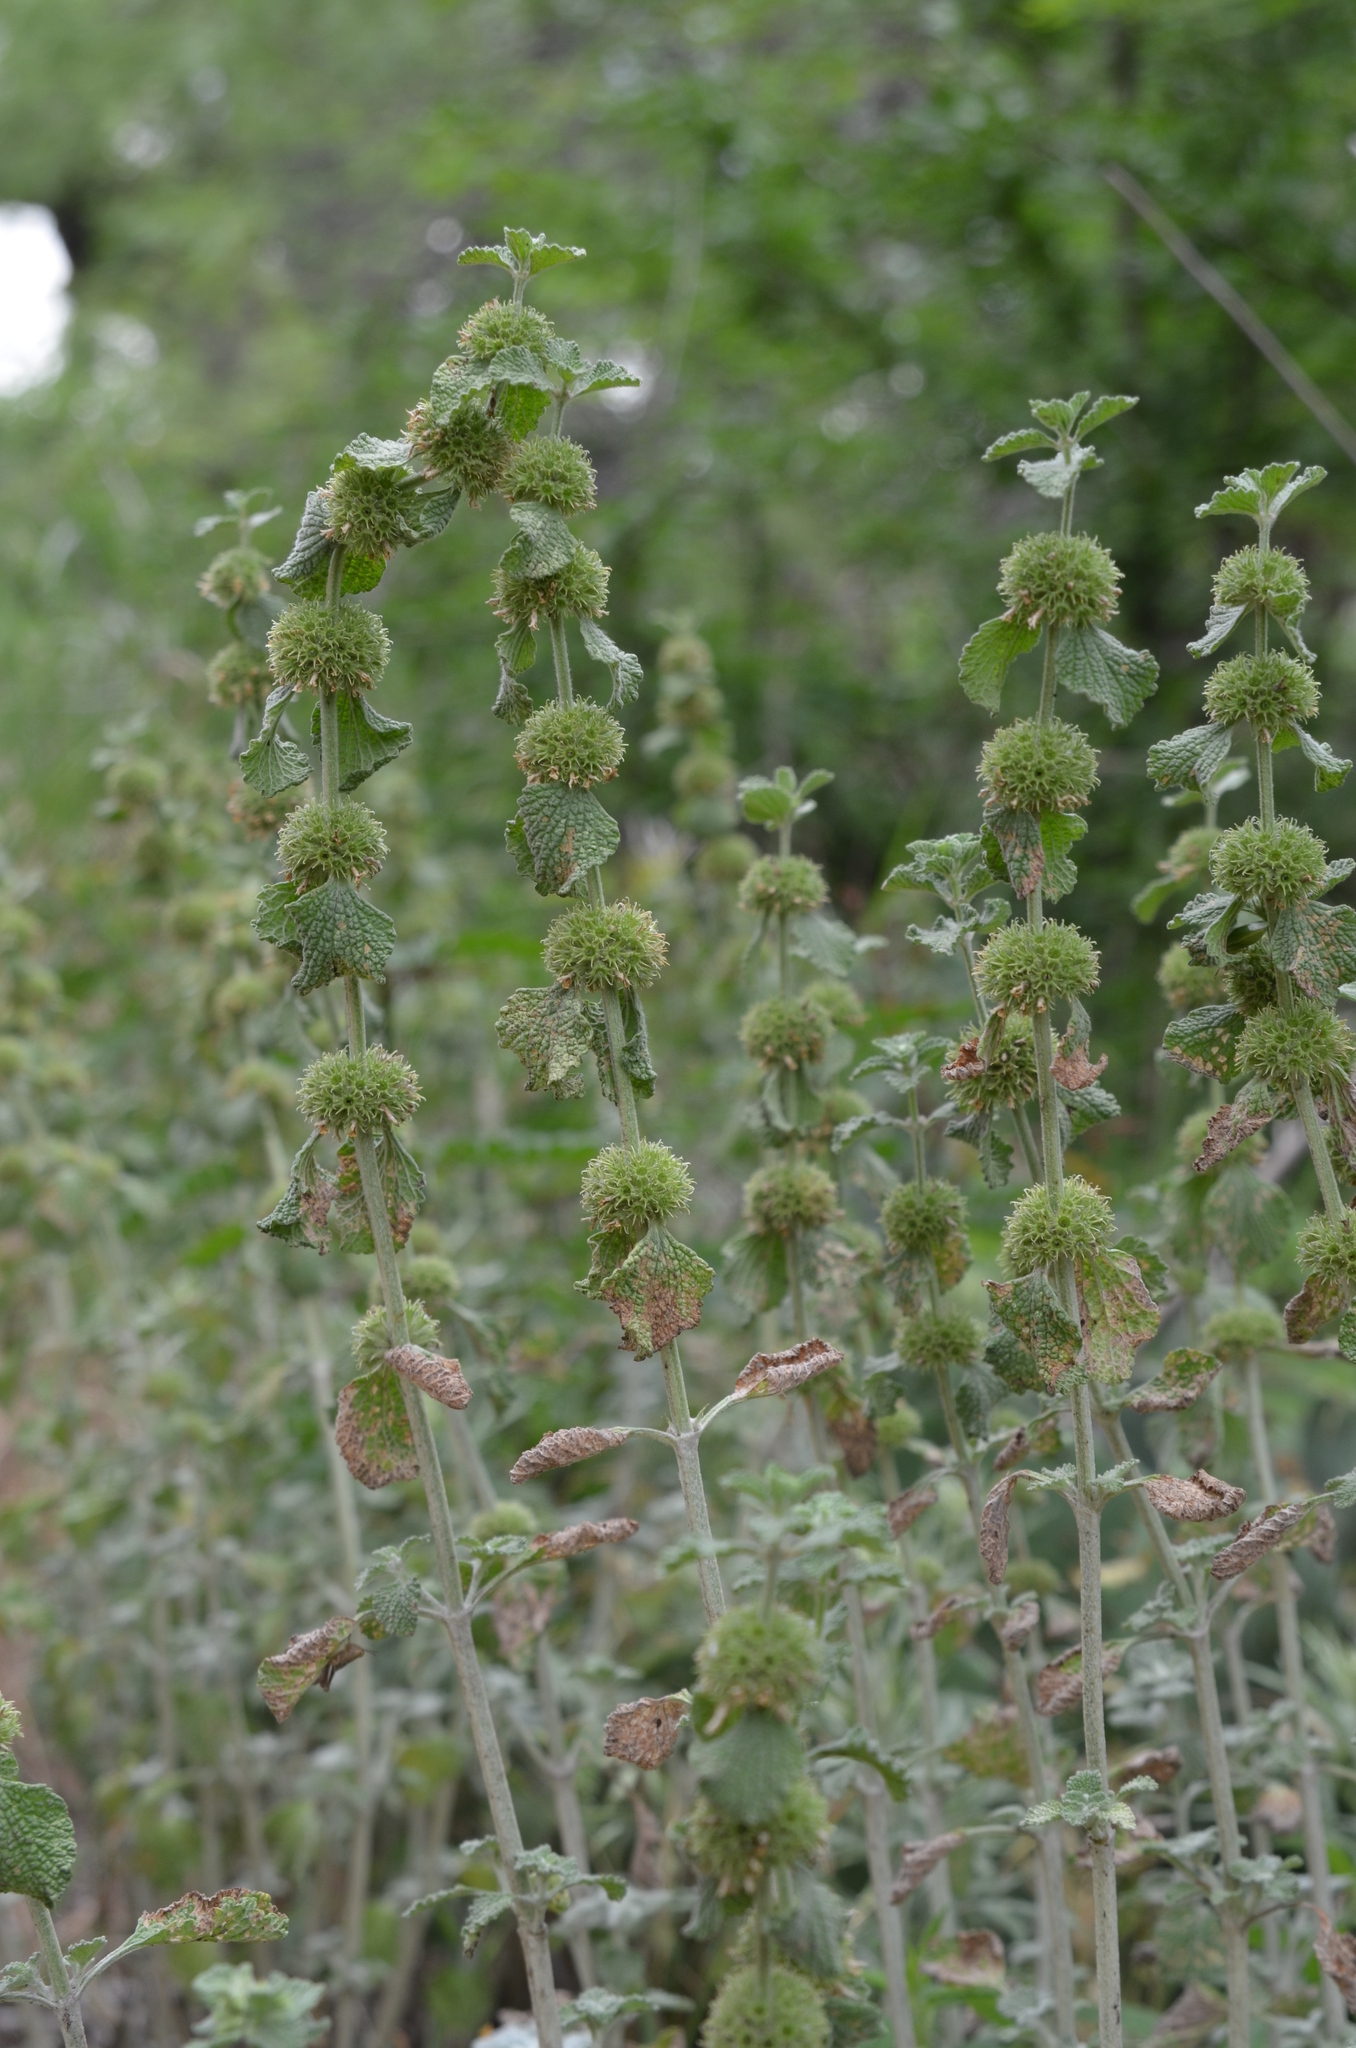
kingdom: Plantae
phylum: Tracheophyta
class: Magnoliopsida
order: Lamiales
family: Lamiaceae
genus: Marrubium
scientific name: Marrubium vulgare
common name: Horehound
